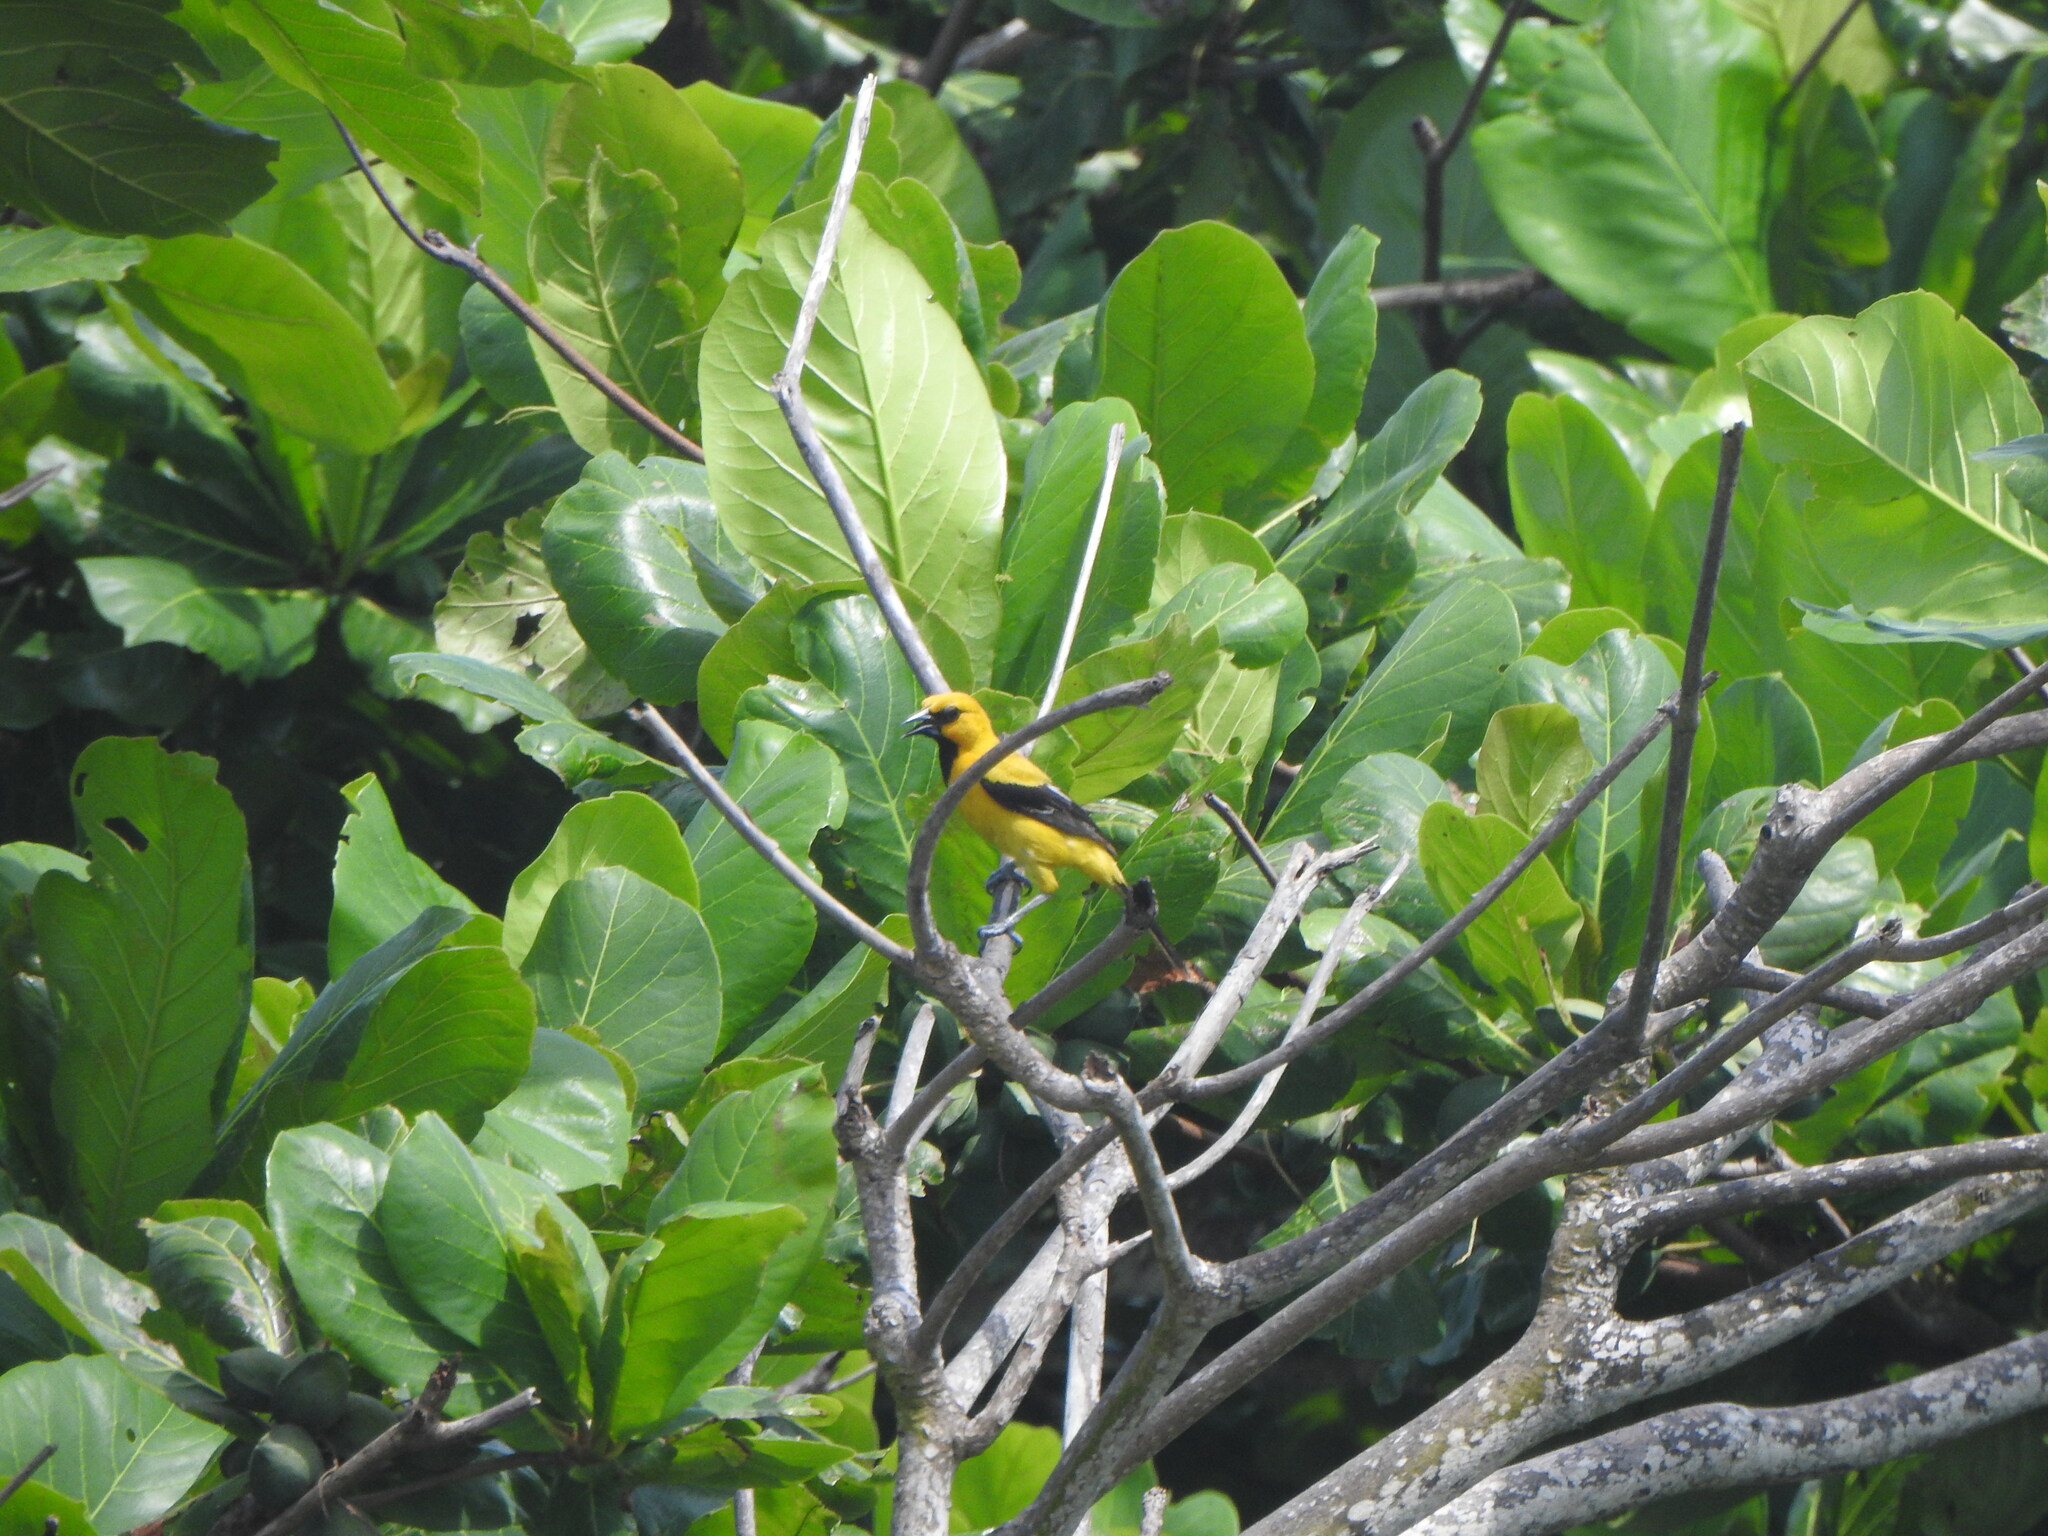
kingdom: Animalia
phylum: Chordata
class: Aves
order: Passeriformes
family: Icteridae
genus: Icterus
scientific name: Icterus nigrogularis
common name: Yellow oriole
